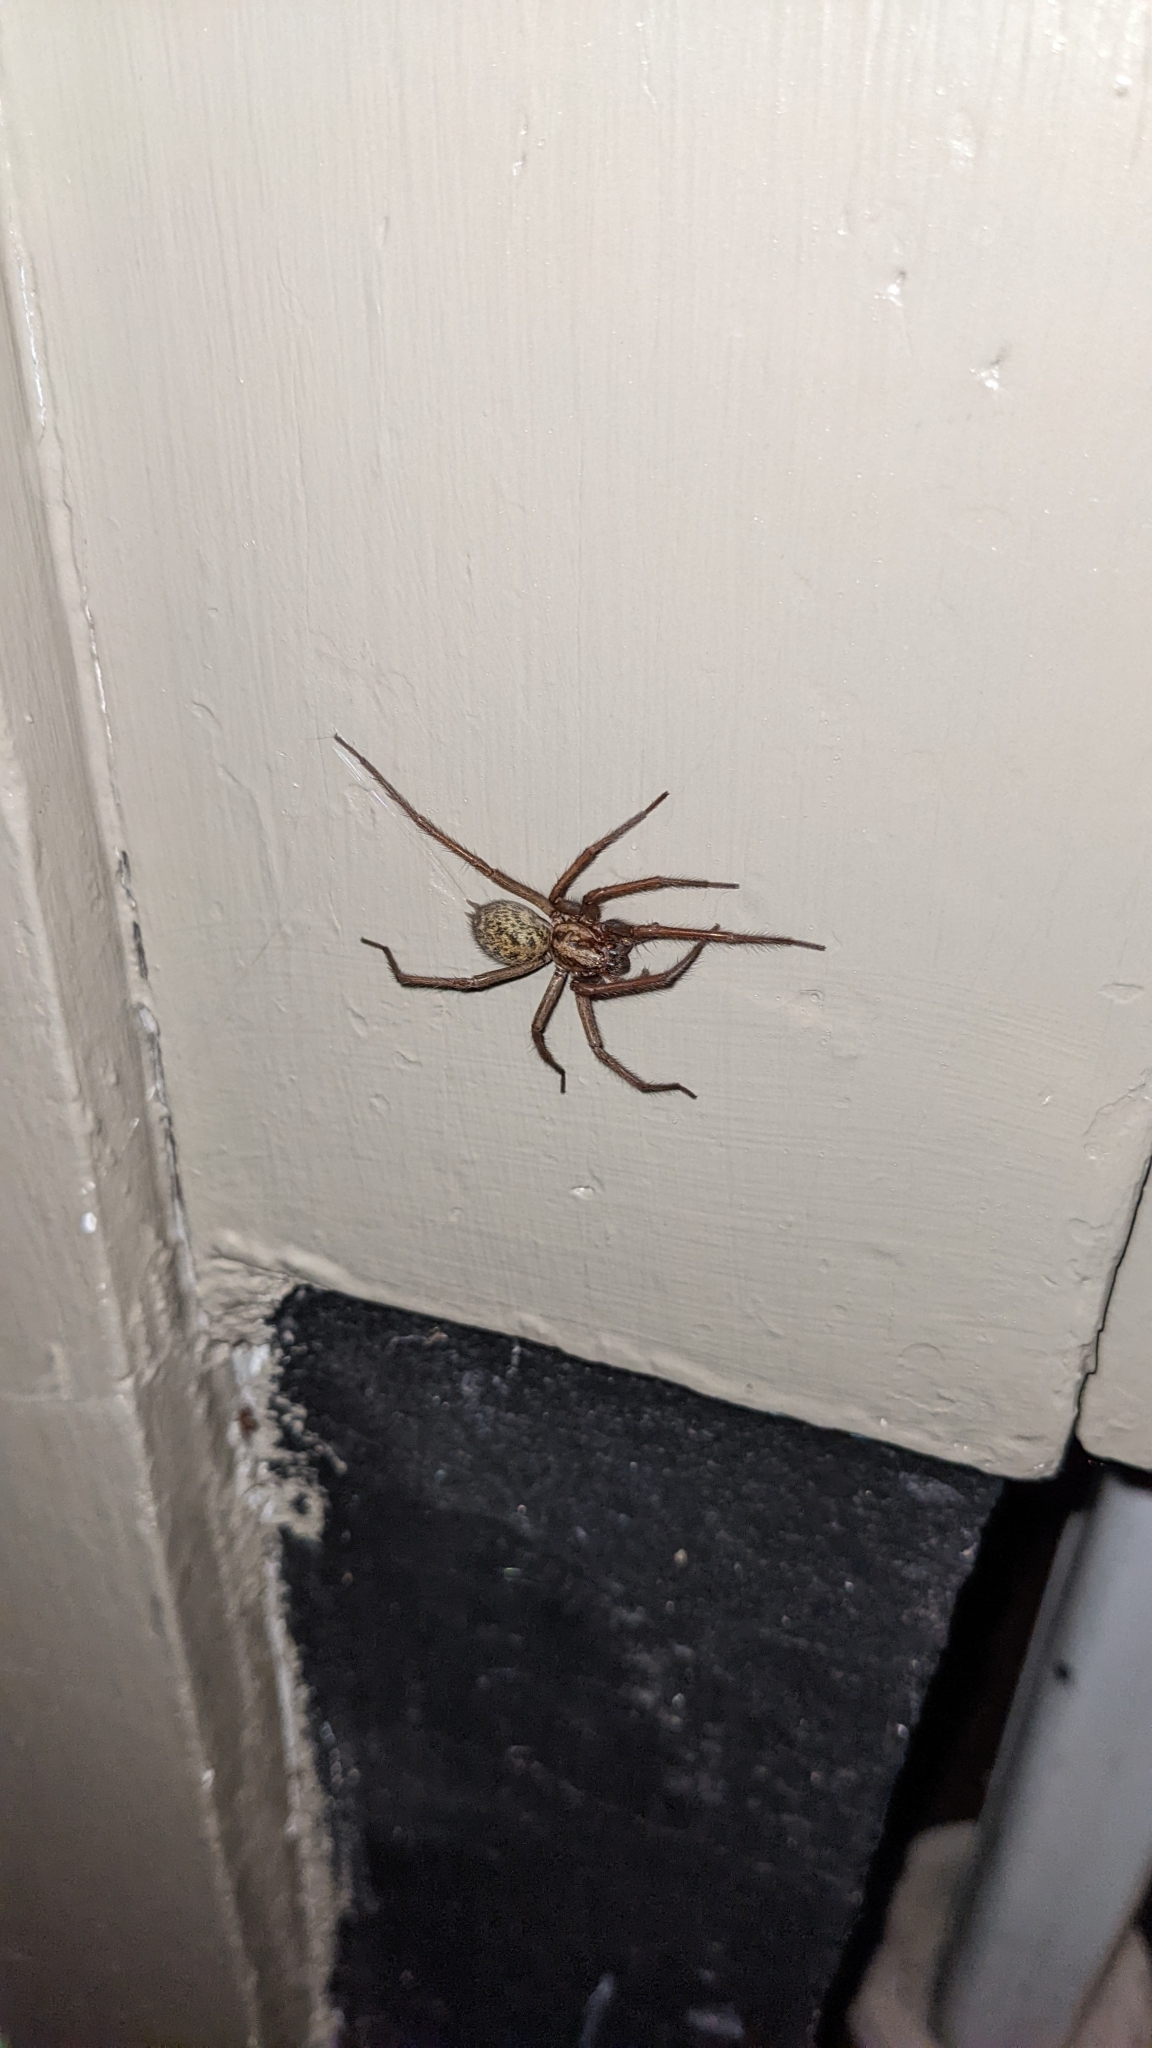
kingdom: Animalia
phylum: Arthropoda
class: Arachnida
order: Araneae
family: Agelenidae
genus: Eratigena
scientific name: Eratigena duellica
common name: Giant house spider
